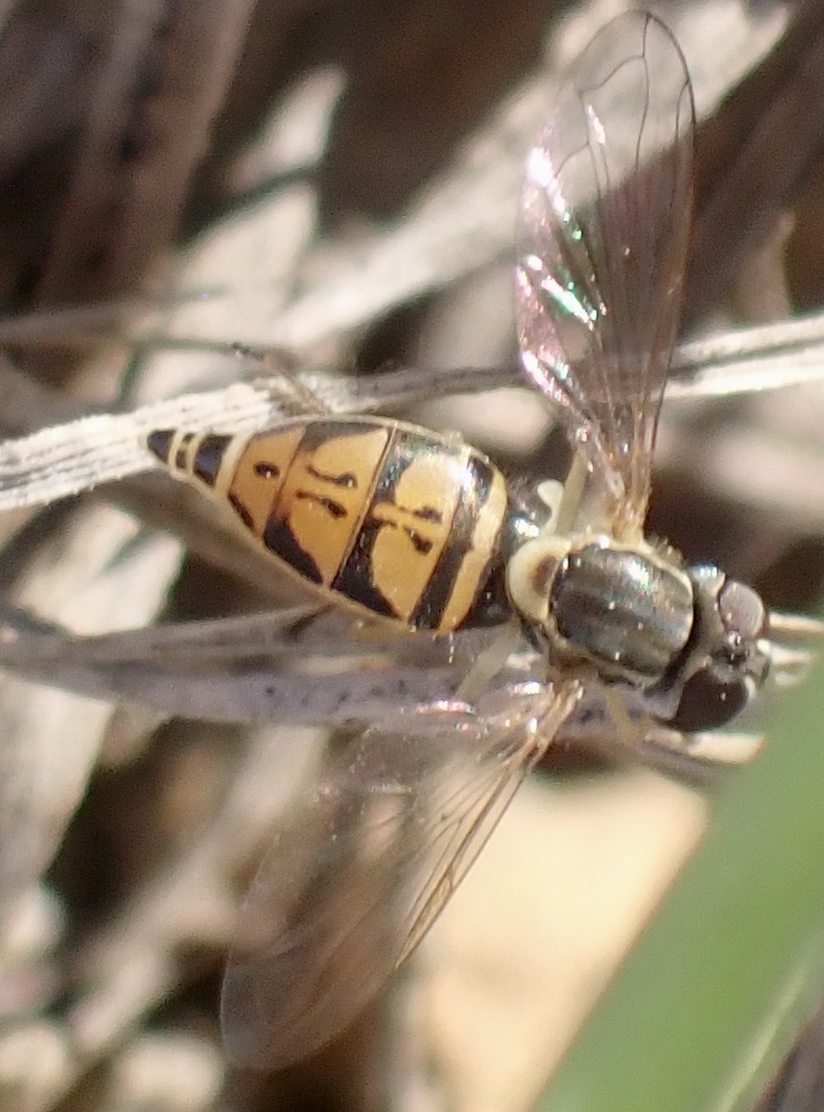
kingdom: Animalia
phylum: Arthropoda
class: Insecta
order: Diptera
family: Syrphidae
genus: Toxomerus
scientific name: Toxomerus marginatus
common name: Syrphid fly
